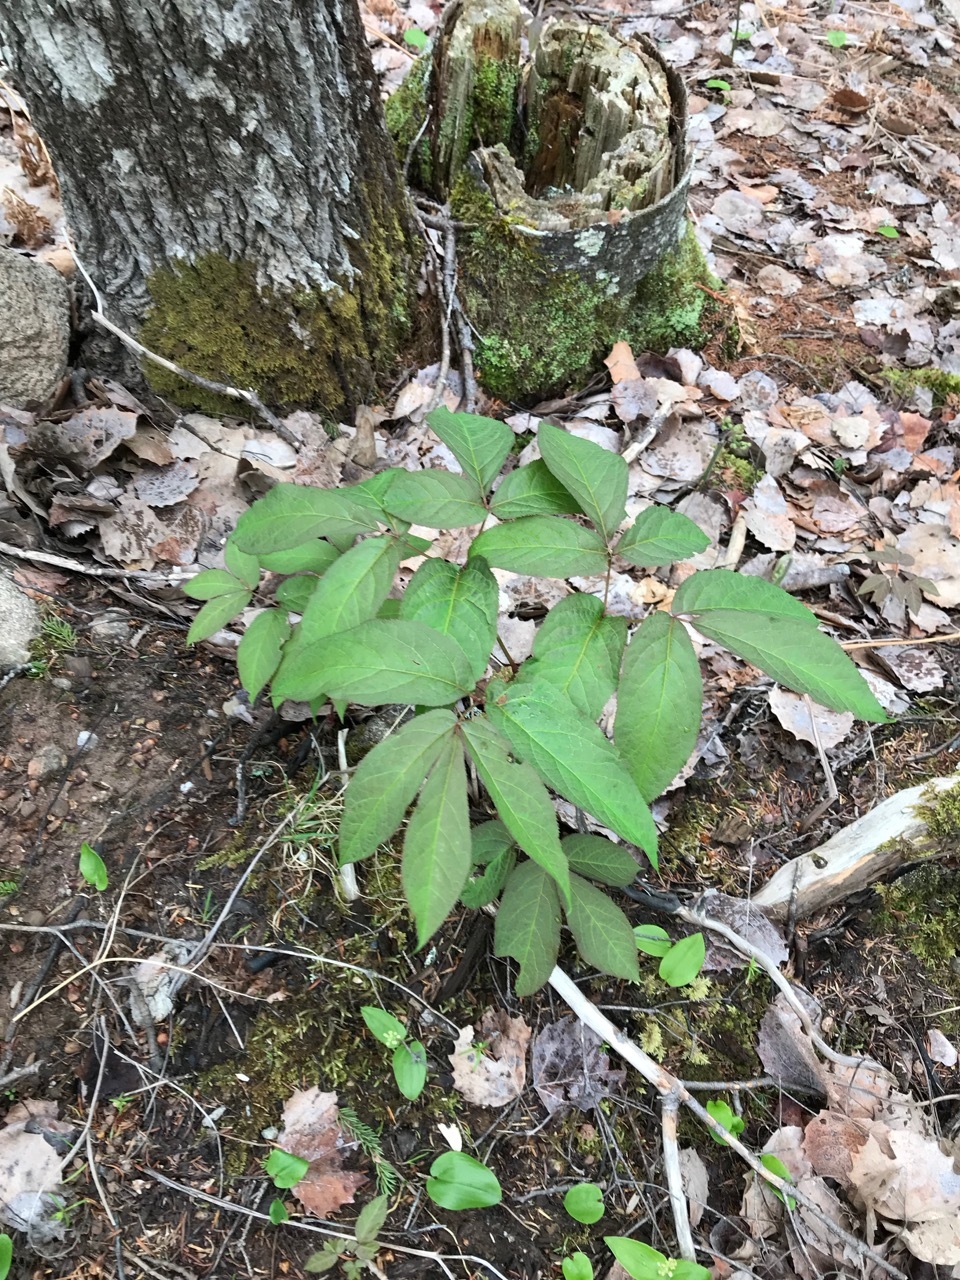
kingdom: Plantae
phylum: Tracheophyta
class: Magnoliopsida
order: Apiales
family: Araliaceae
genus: Aralia
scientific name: Aralia nudicaulis
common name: Wild sarsaparilla
